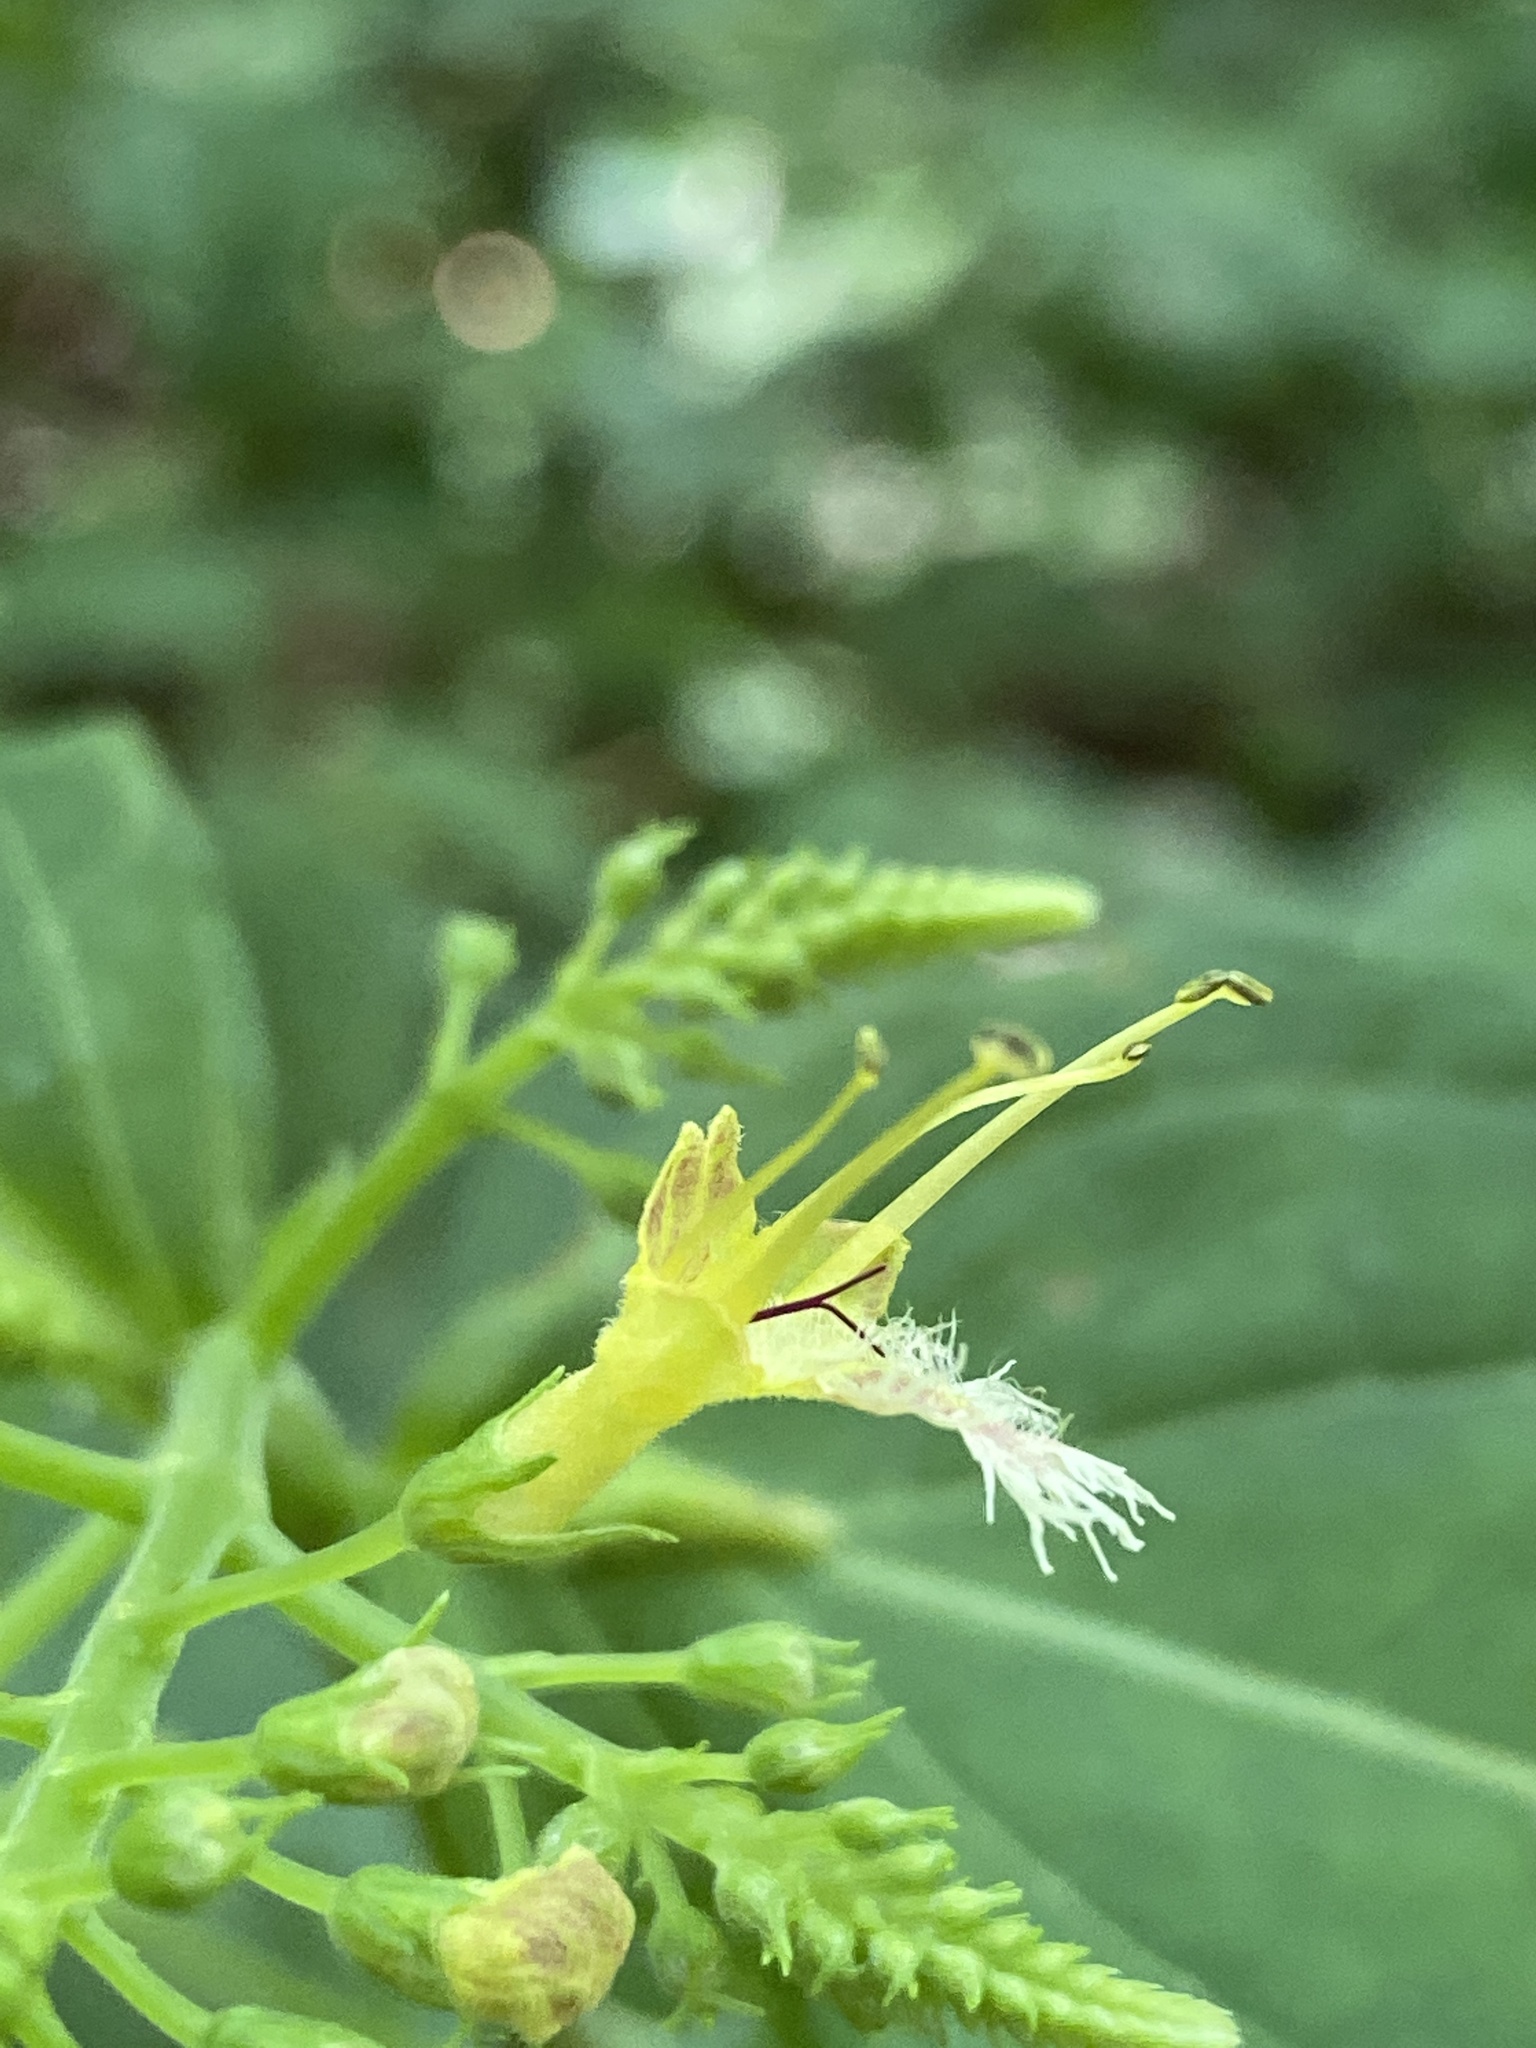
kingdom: Plantae
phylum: Tracheophyta
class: Magnoliopsida
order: Lamiales
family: Lamiaceae
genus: Collinsonia
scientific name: Collinsonia canadensis
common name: Northern horsebalm
